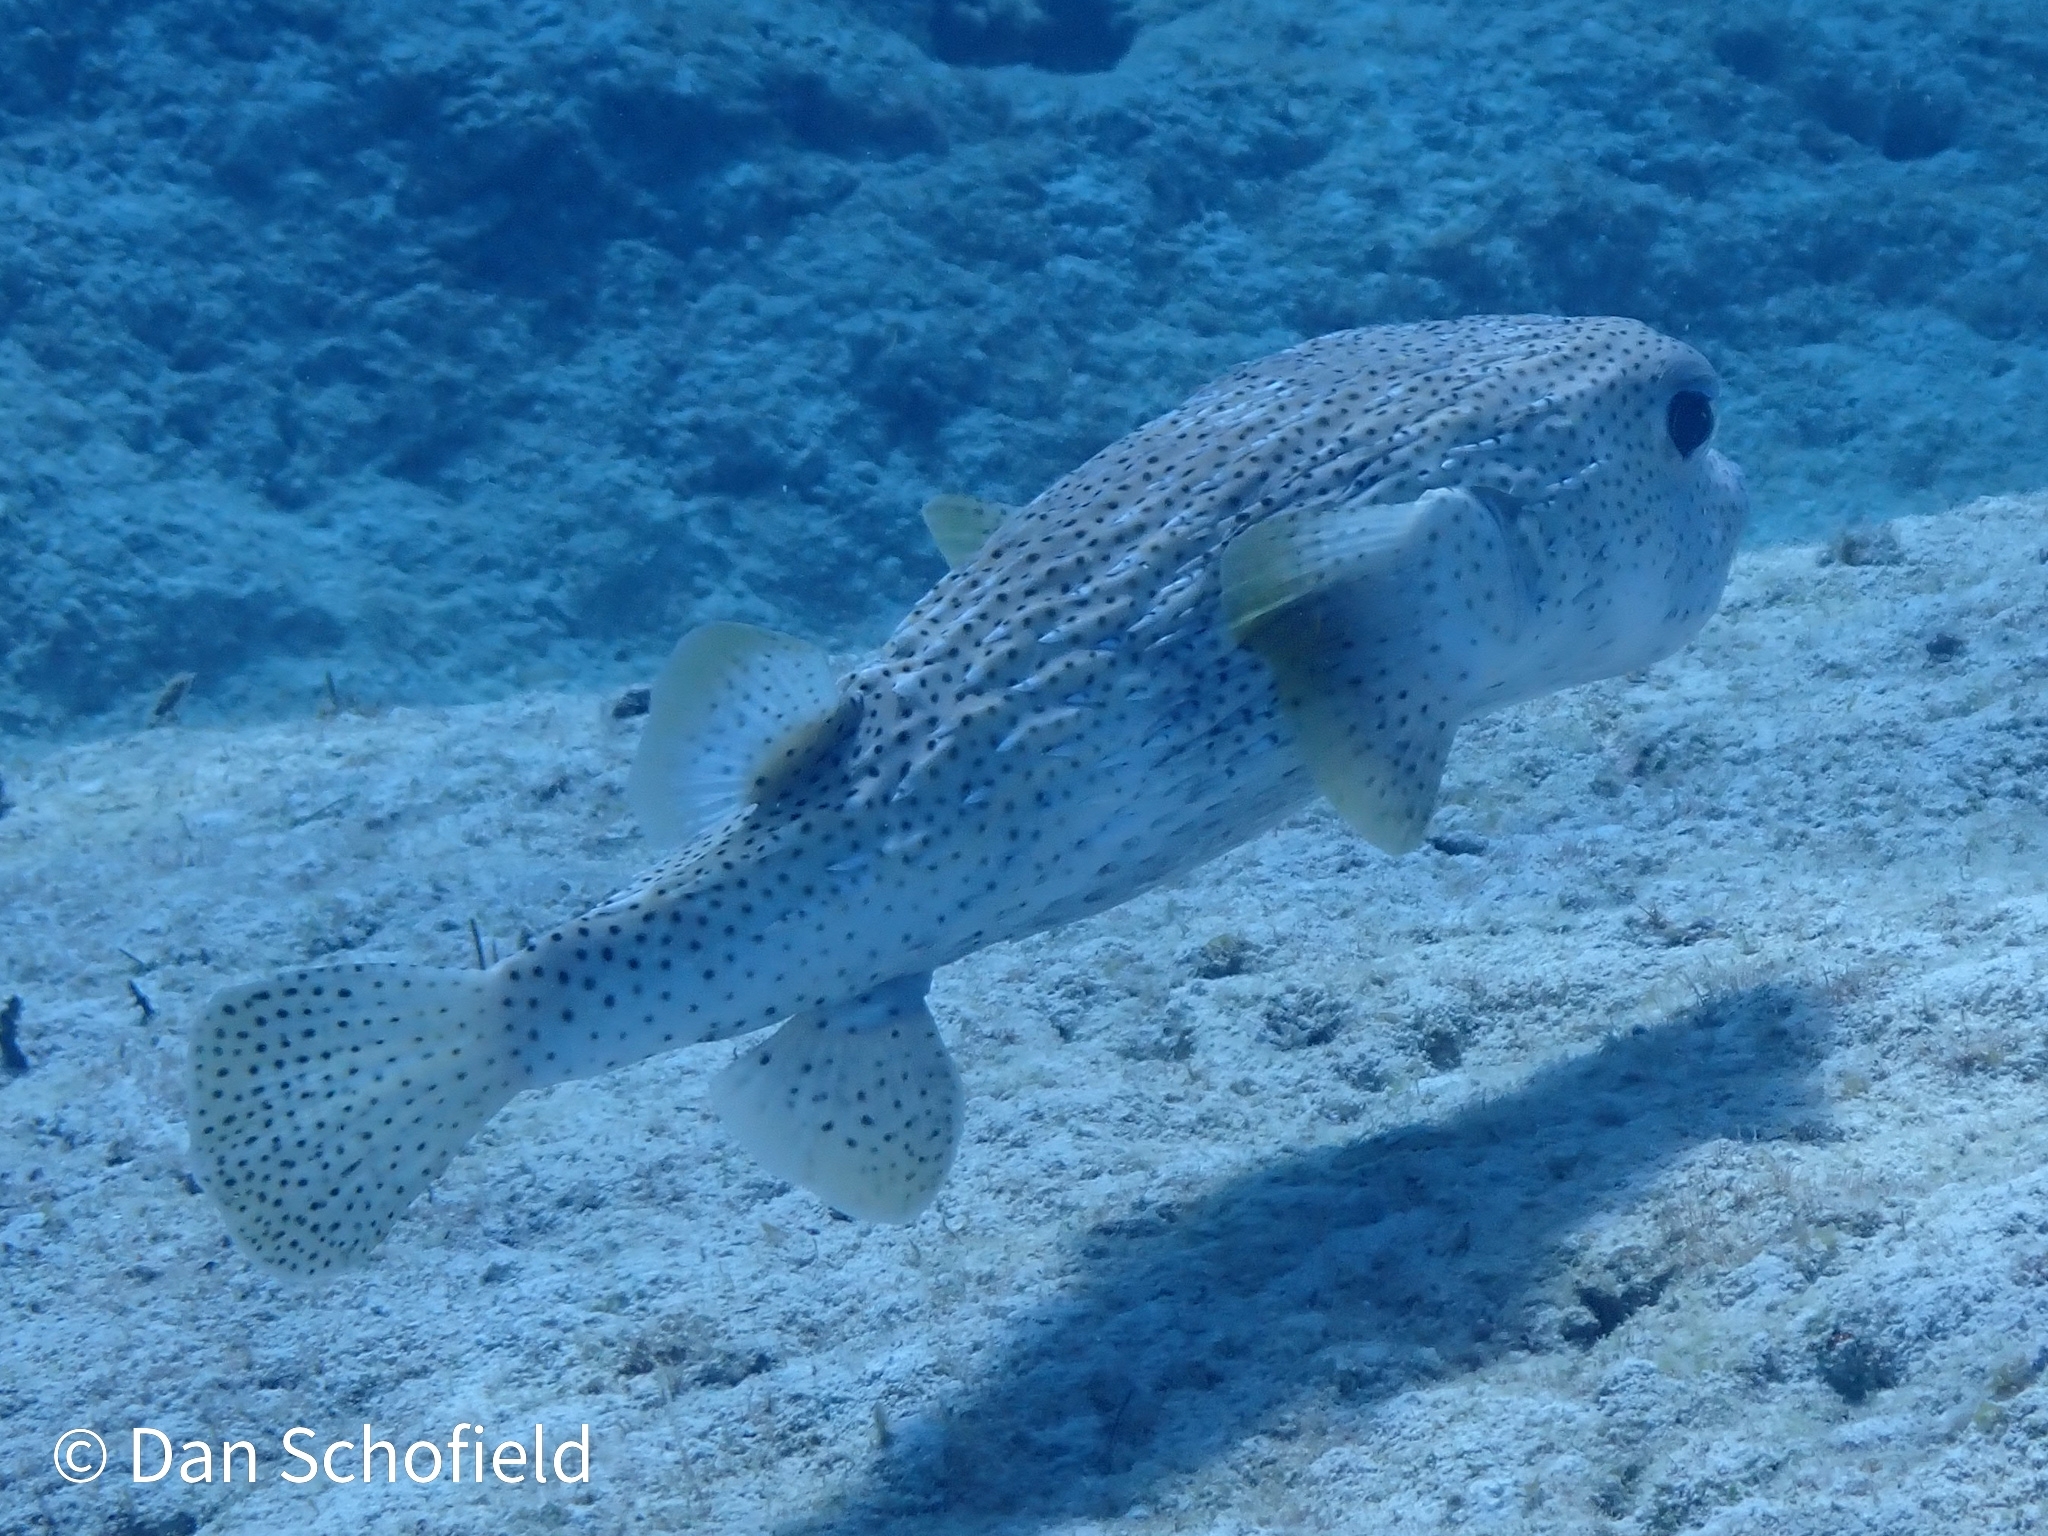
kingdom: Animalia
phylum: Chordata
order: Tetraodontiformes
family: Diodontidae
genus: Diodon
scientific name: Diodon hystrix
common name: Giant porcupinefish
